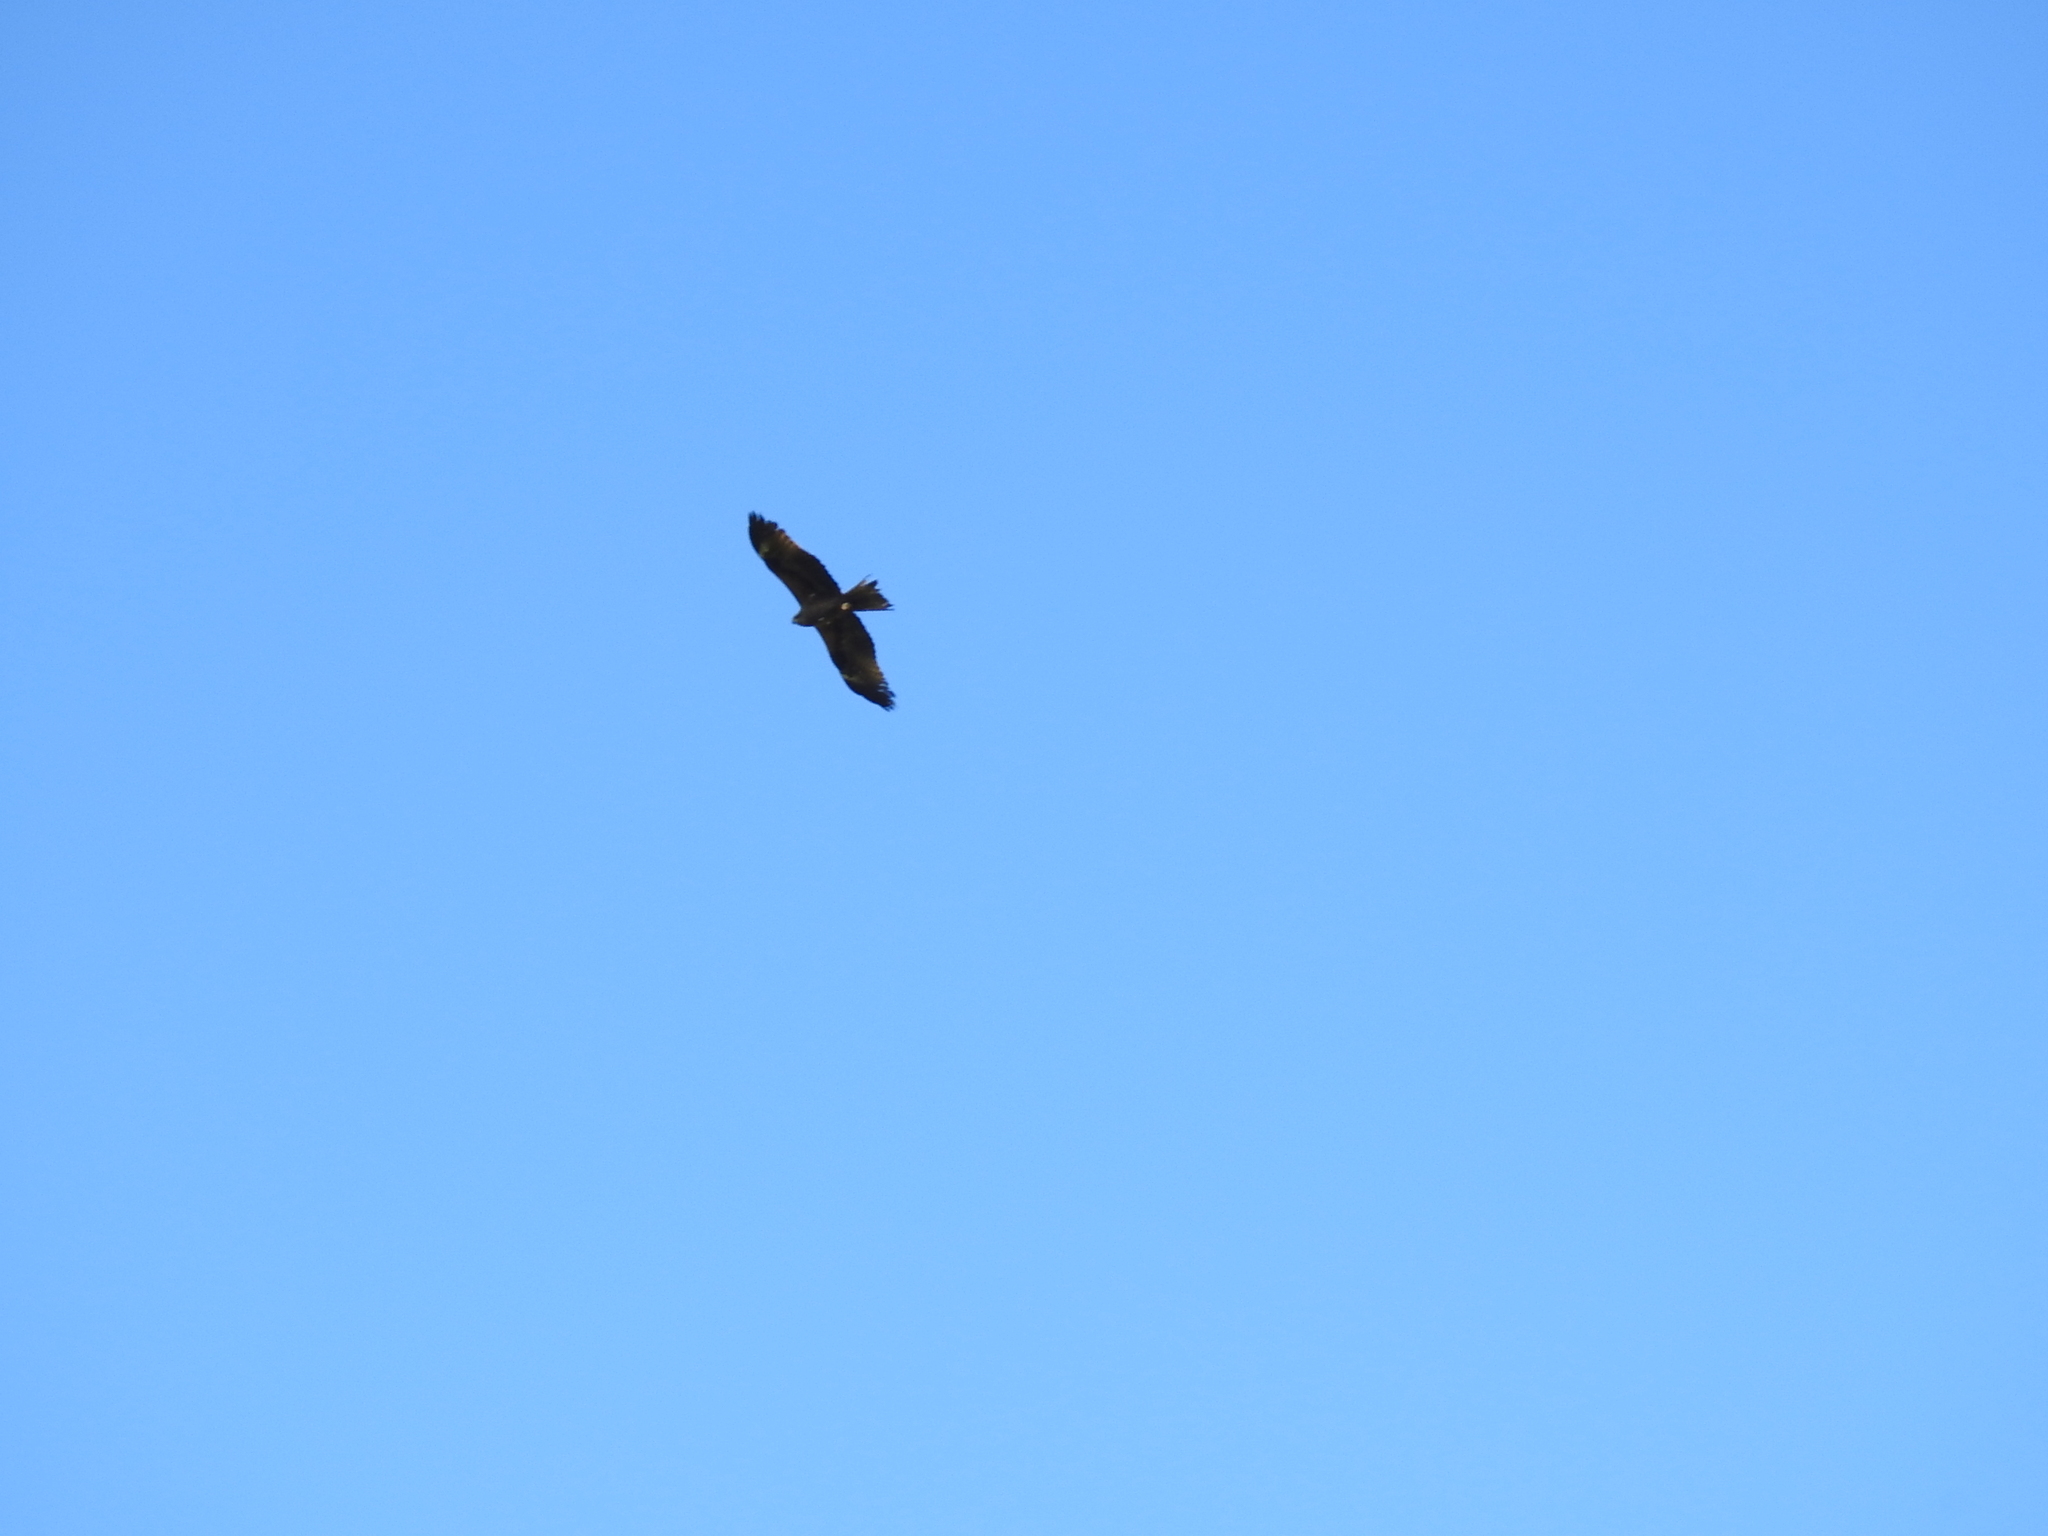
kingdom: Animalia
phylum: Chordata
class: Aves
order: Accipitriformes
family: Accipitridae
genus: Milvus
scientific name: Milvus migrans
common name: Black kite
